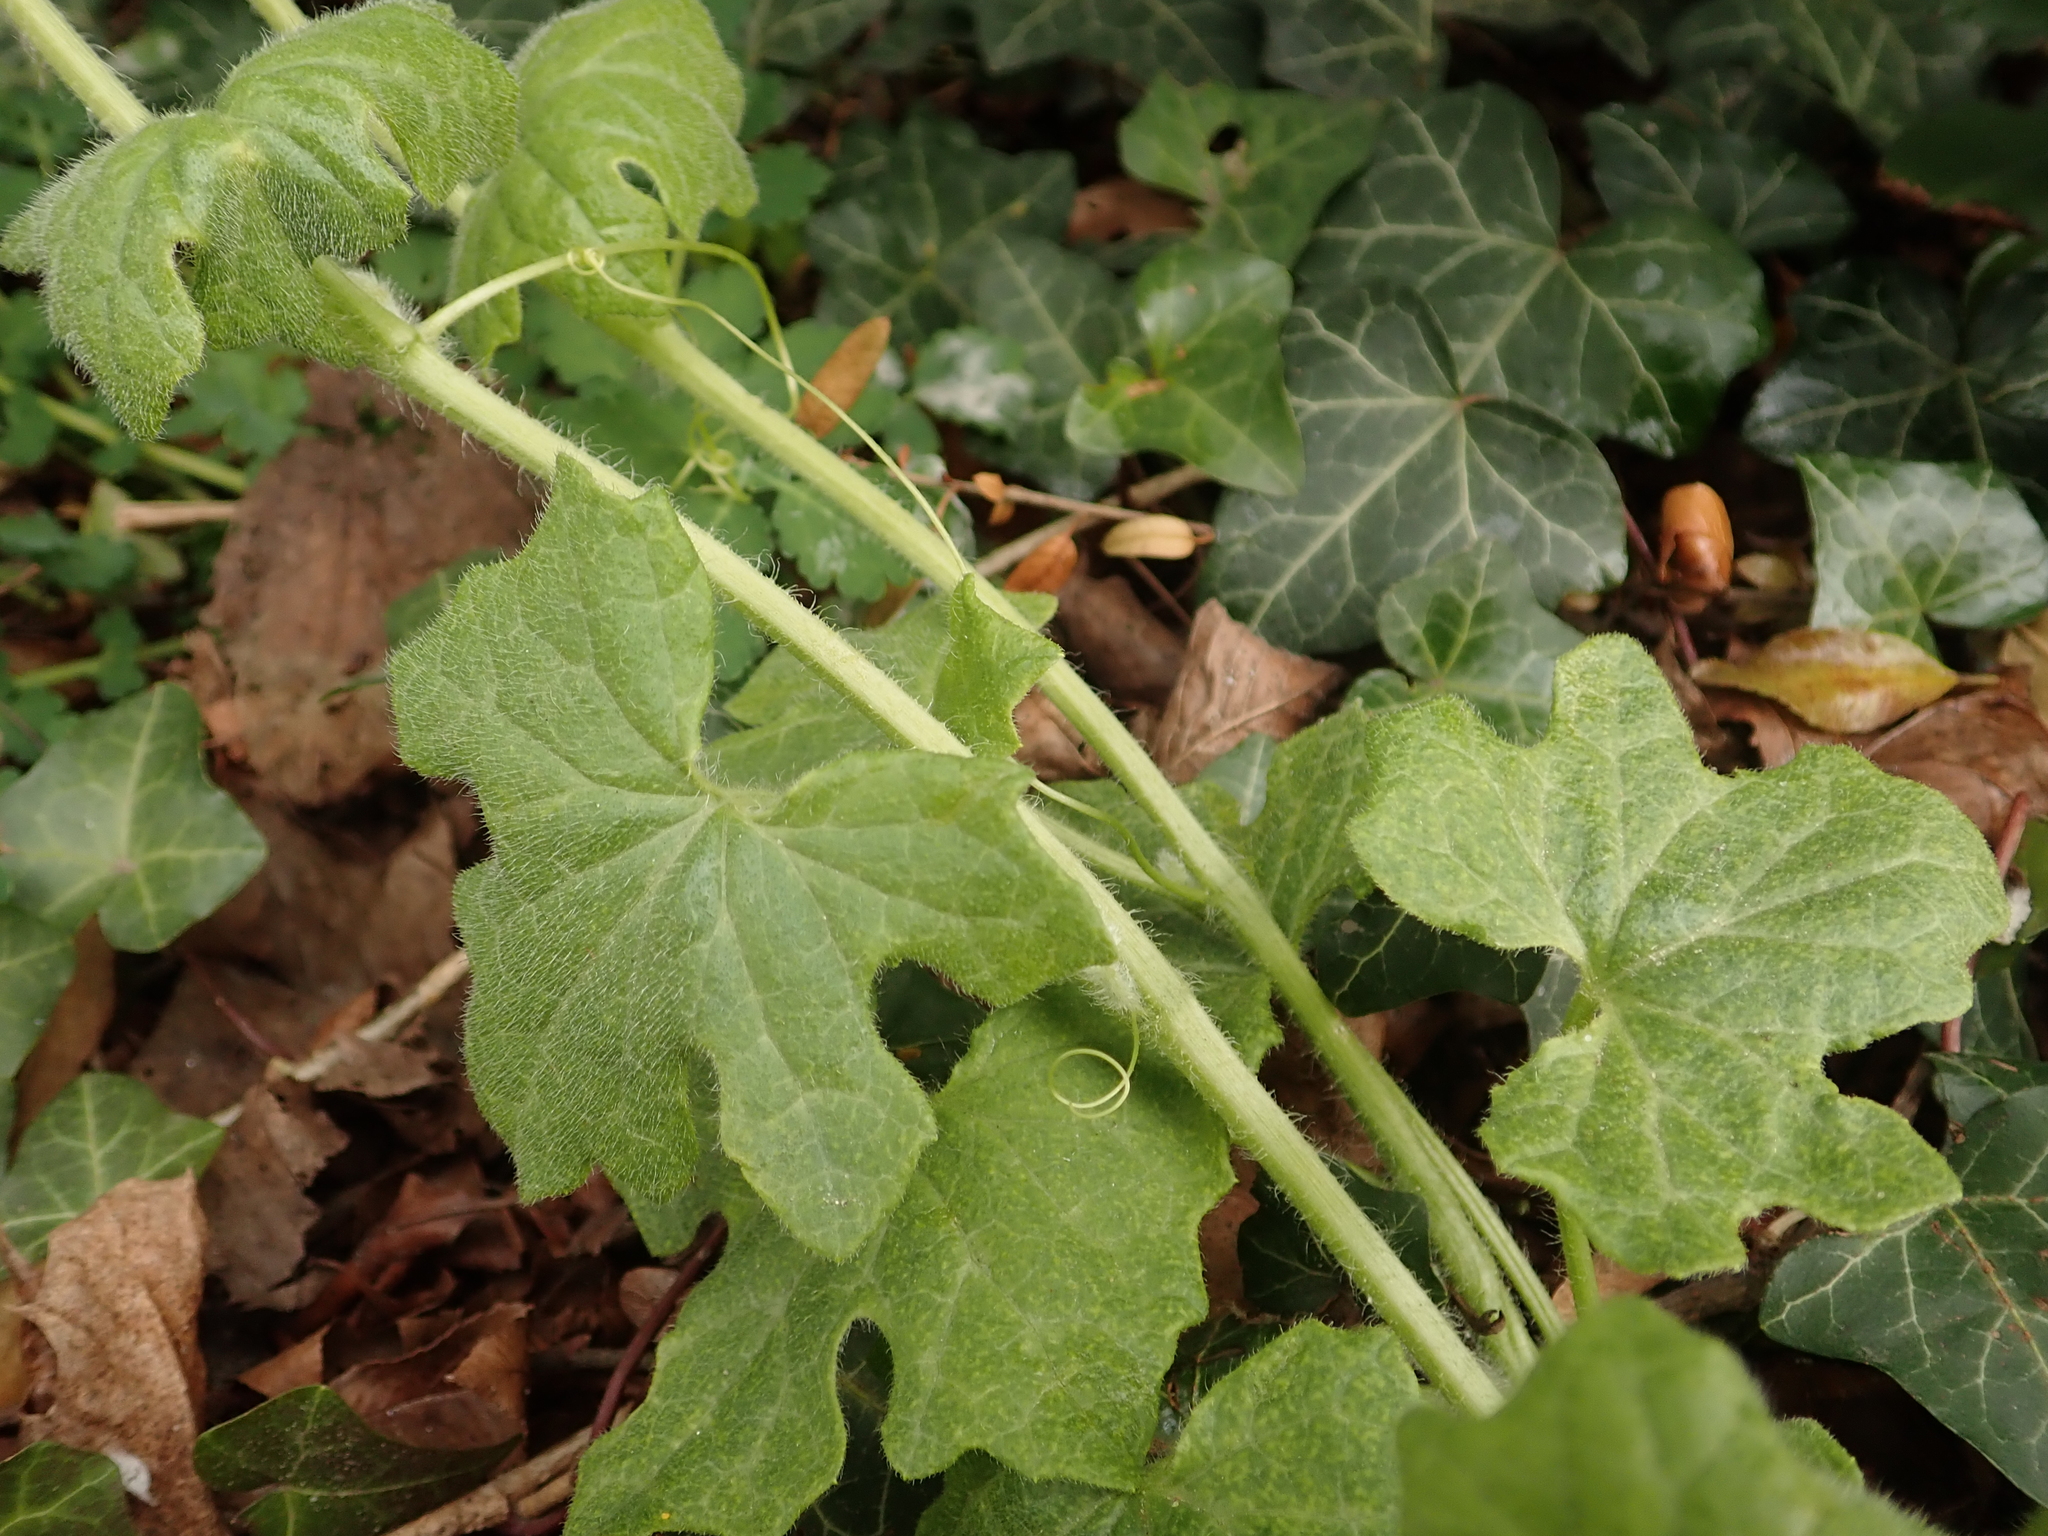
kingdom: Plantae
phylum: Tracheophyta
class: Magnoliopsida
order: Cucurbitales
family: Cucurbitaceae
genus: Bryonia
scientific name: Bryonia cretica
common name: Cretan bryony
